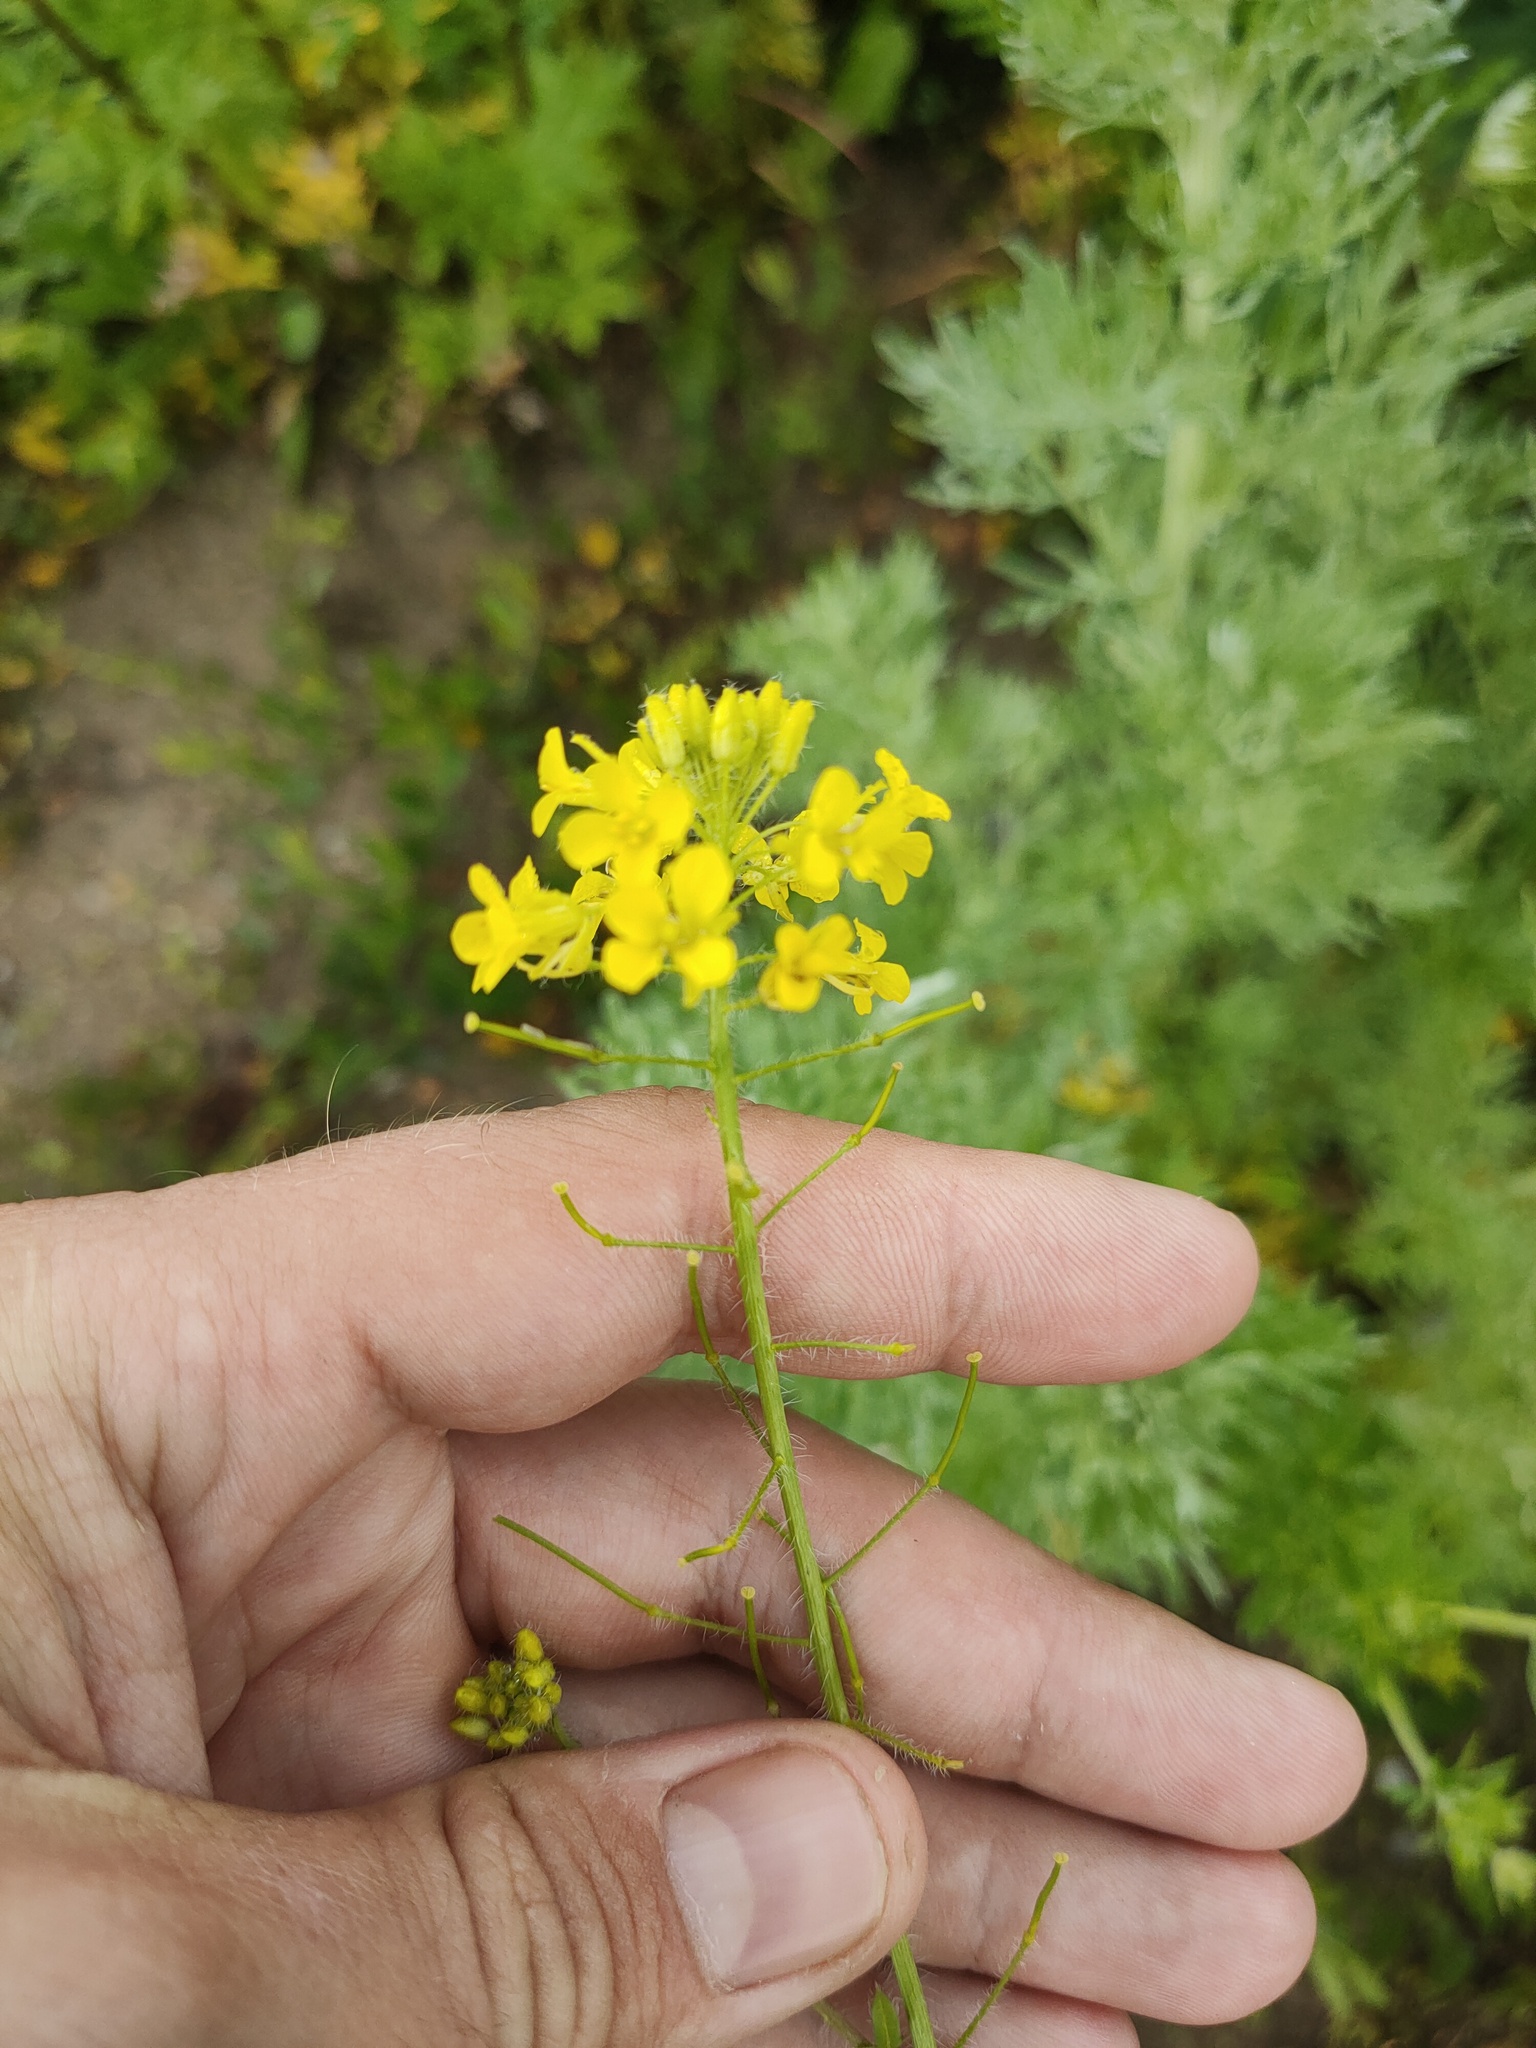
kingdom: Plantae
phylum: Tracheophyta
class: Magnoliopsida
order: Brassicales
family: Brassicaceae
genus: Sisymbrium
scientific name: Sisymbrium loeselii
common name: False london-rocket
